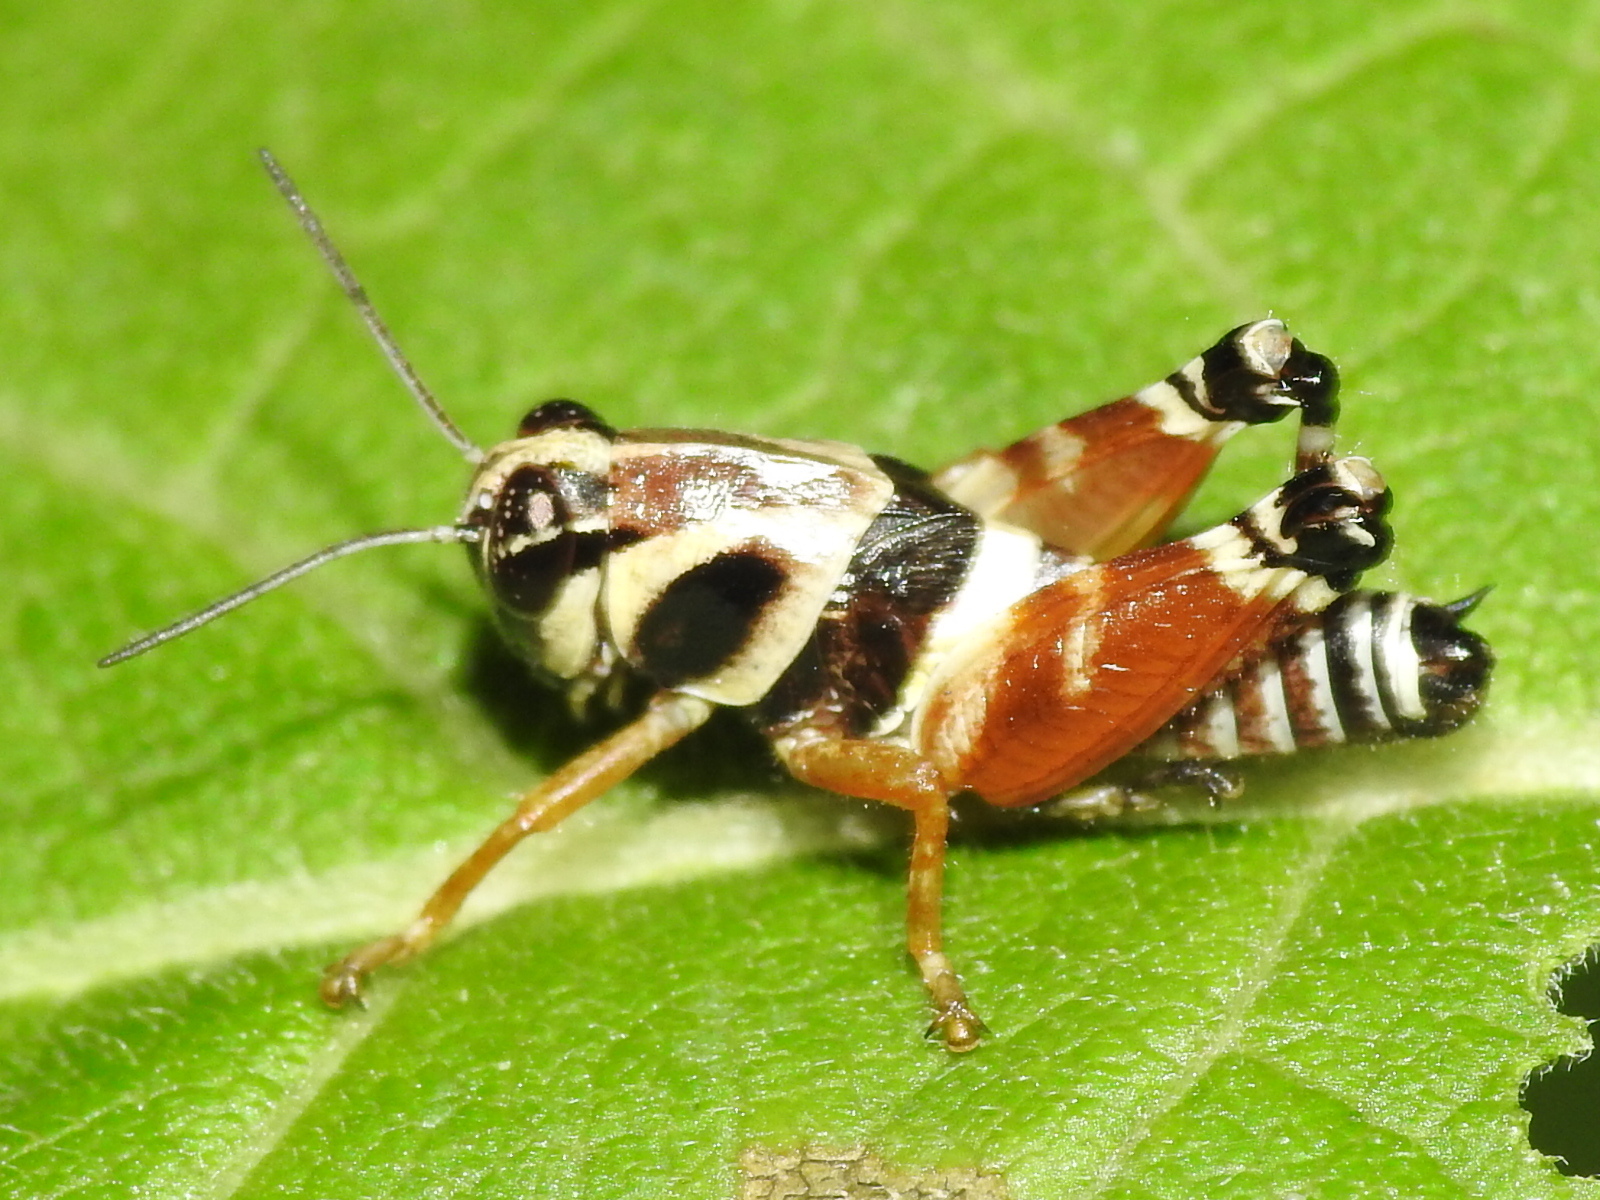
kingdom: Animalia
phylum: Arthropoda
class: Insecta
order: Orthoptera
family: Acrididae
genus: Aidemona
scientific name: Aidemona azteca
